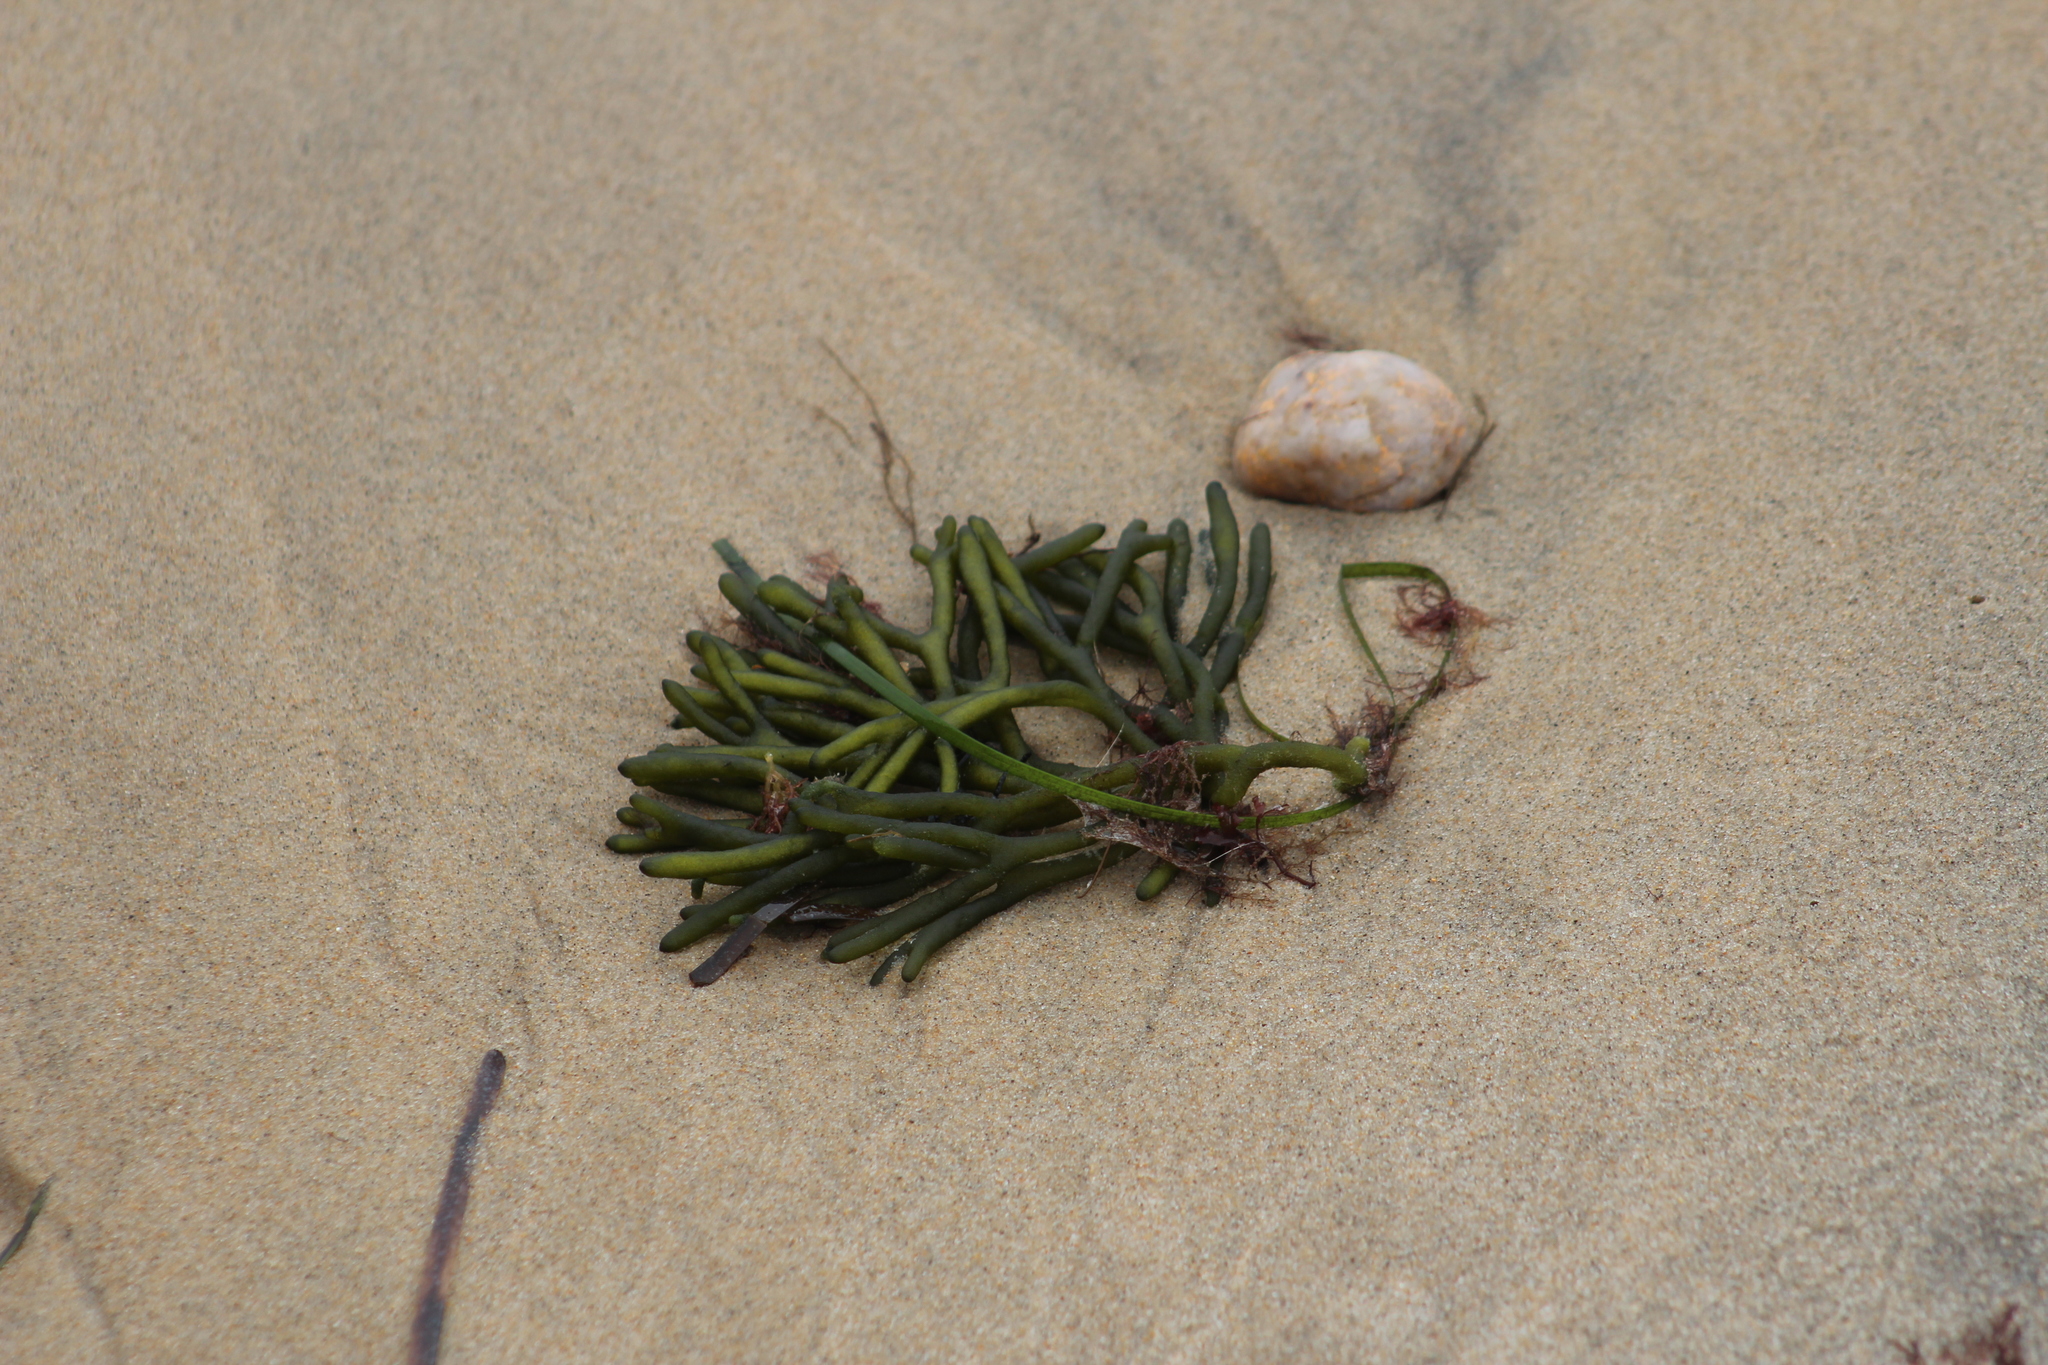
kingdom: Plantae
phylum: Chlorophyta
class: Ulvophyceae
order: Bryopsidales
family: Codiaceae
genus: Codium
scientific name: Codium fragile
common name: Dead man's fingers
